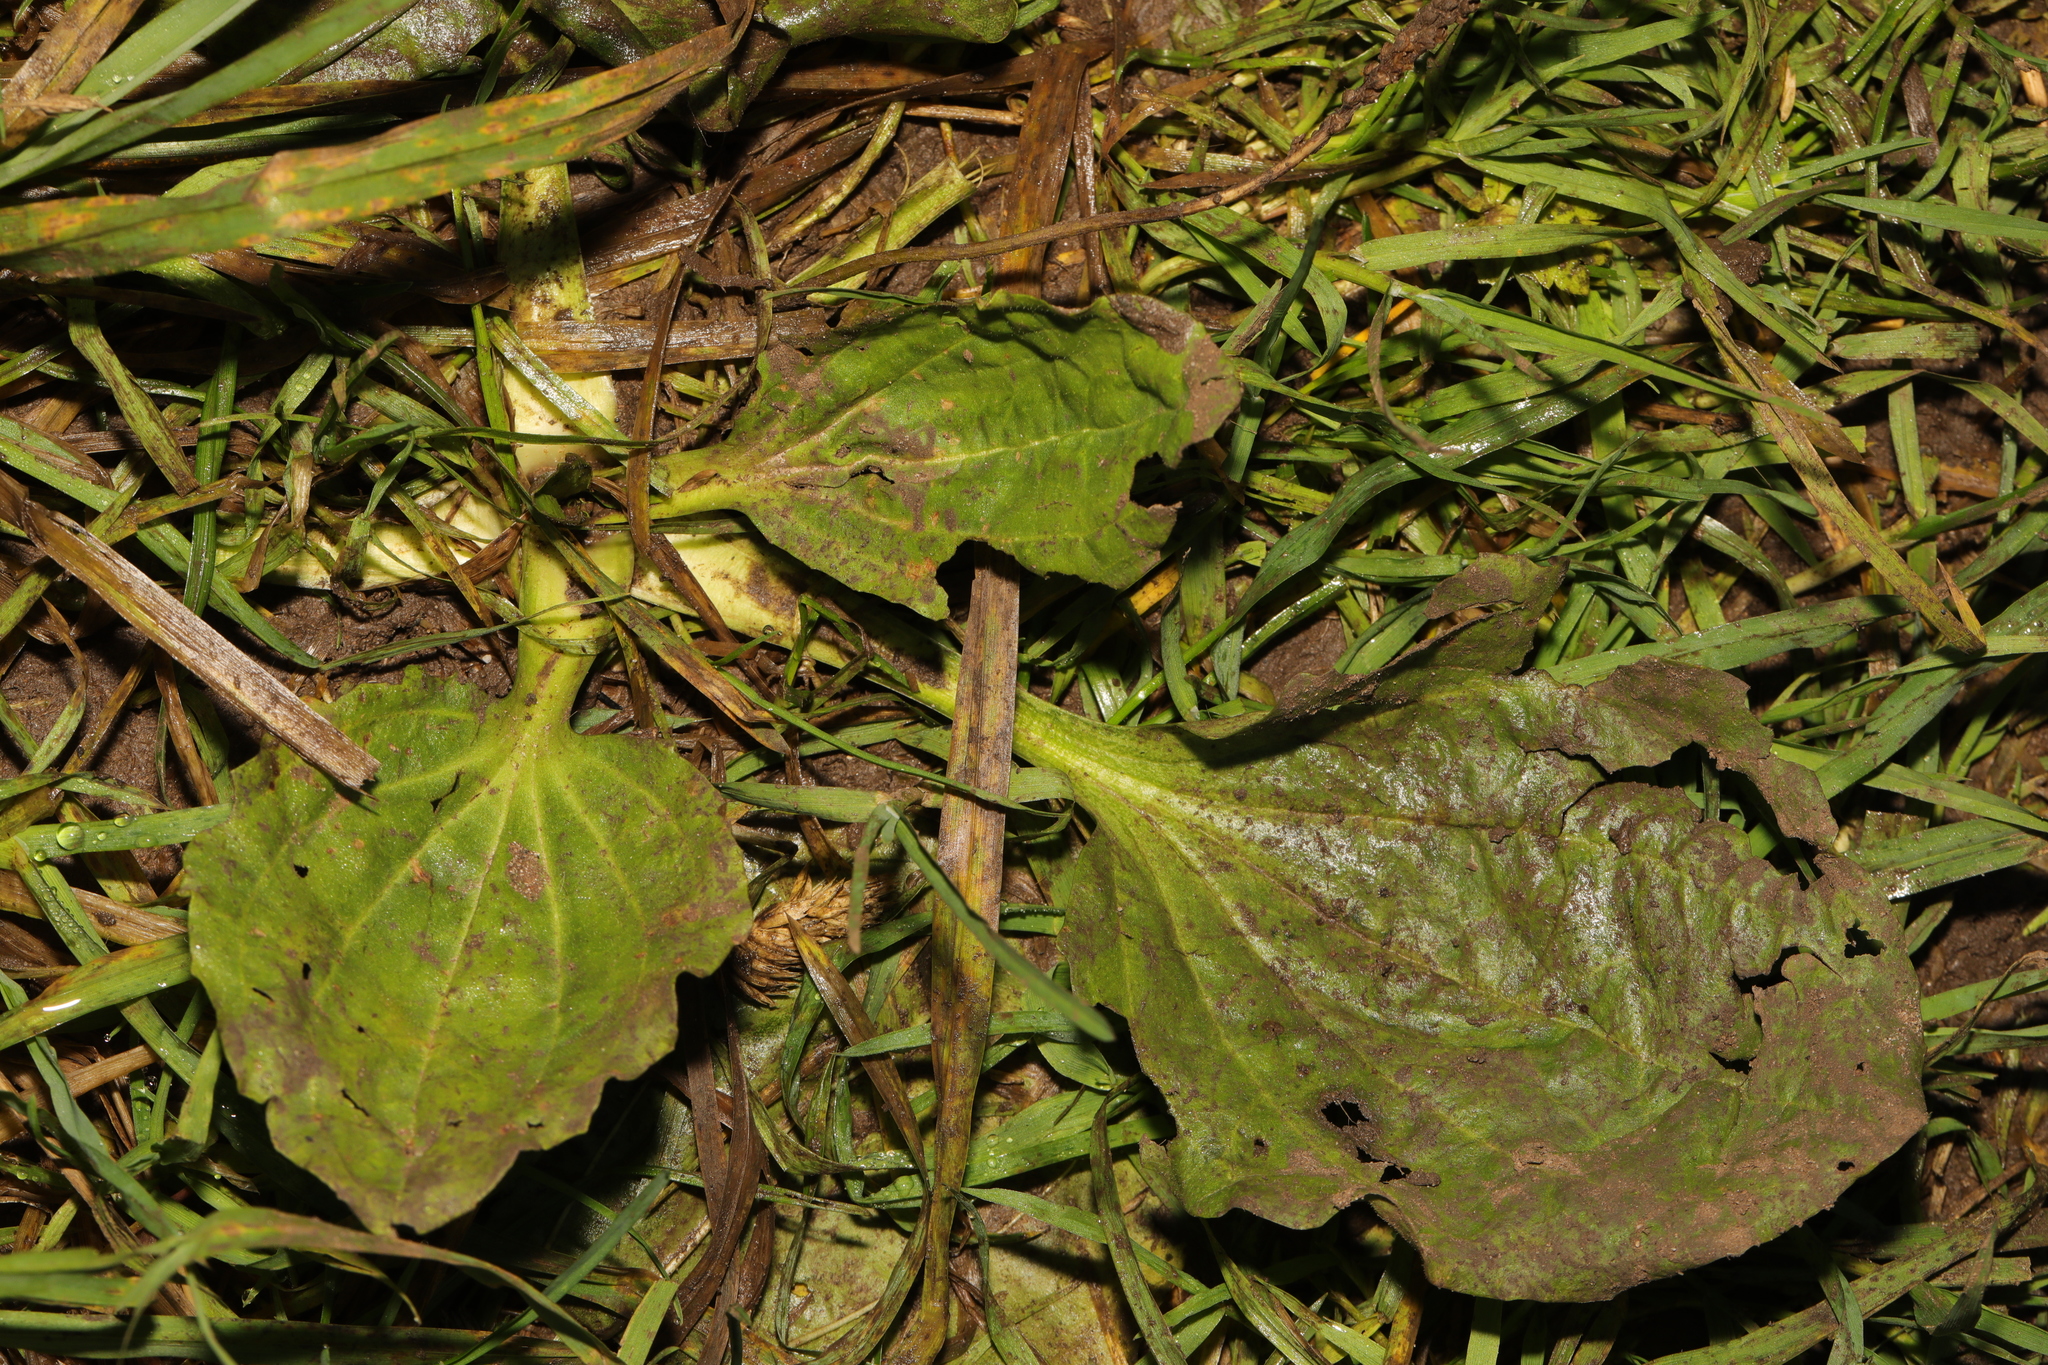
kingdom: Plantae
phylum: Tracheophyta
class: Magnoliopsida
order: Lamiales
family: Plantaginaceae
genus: Plantago
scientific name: Plantago major
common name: Common plantain
